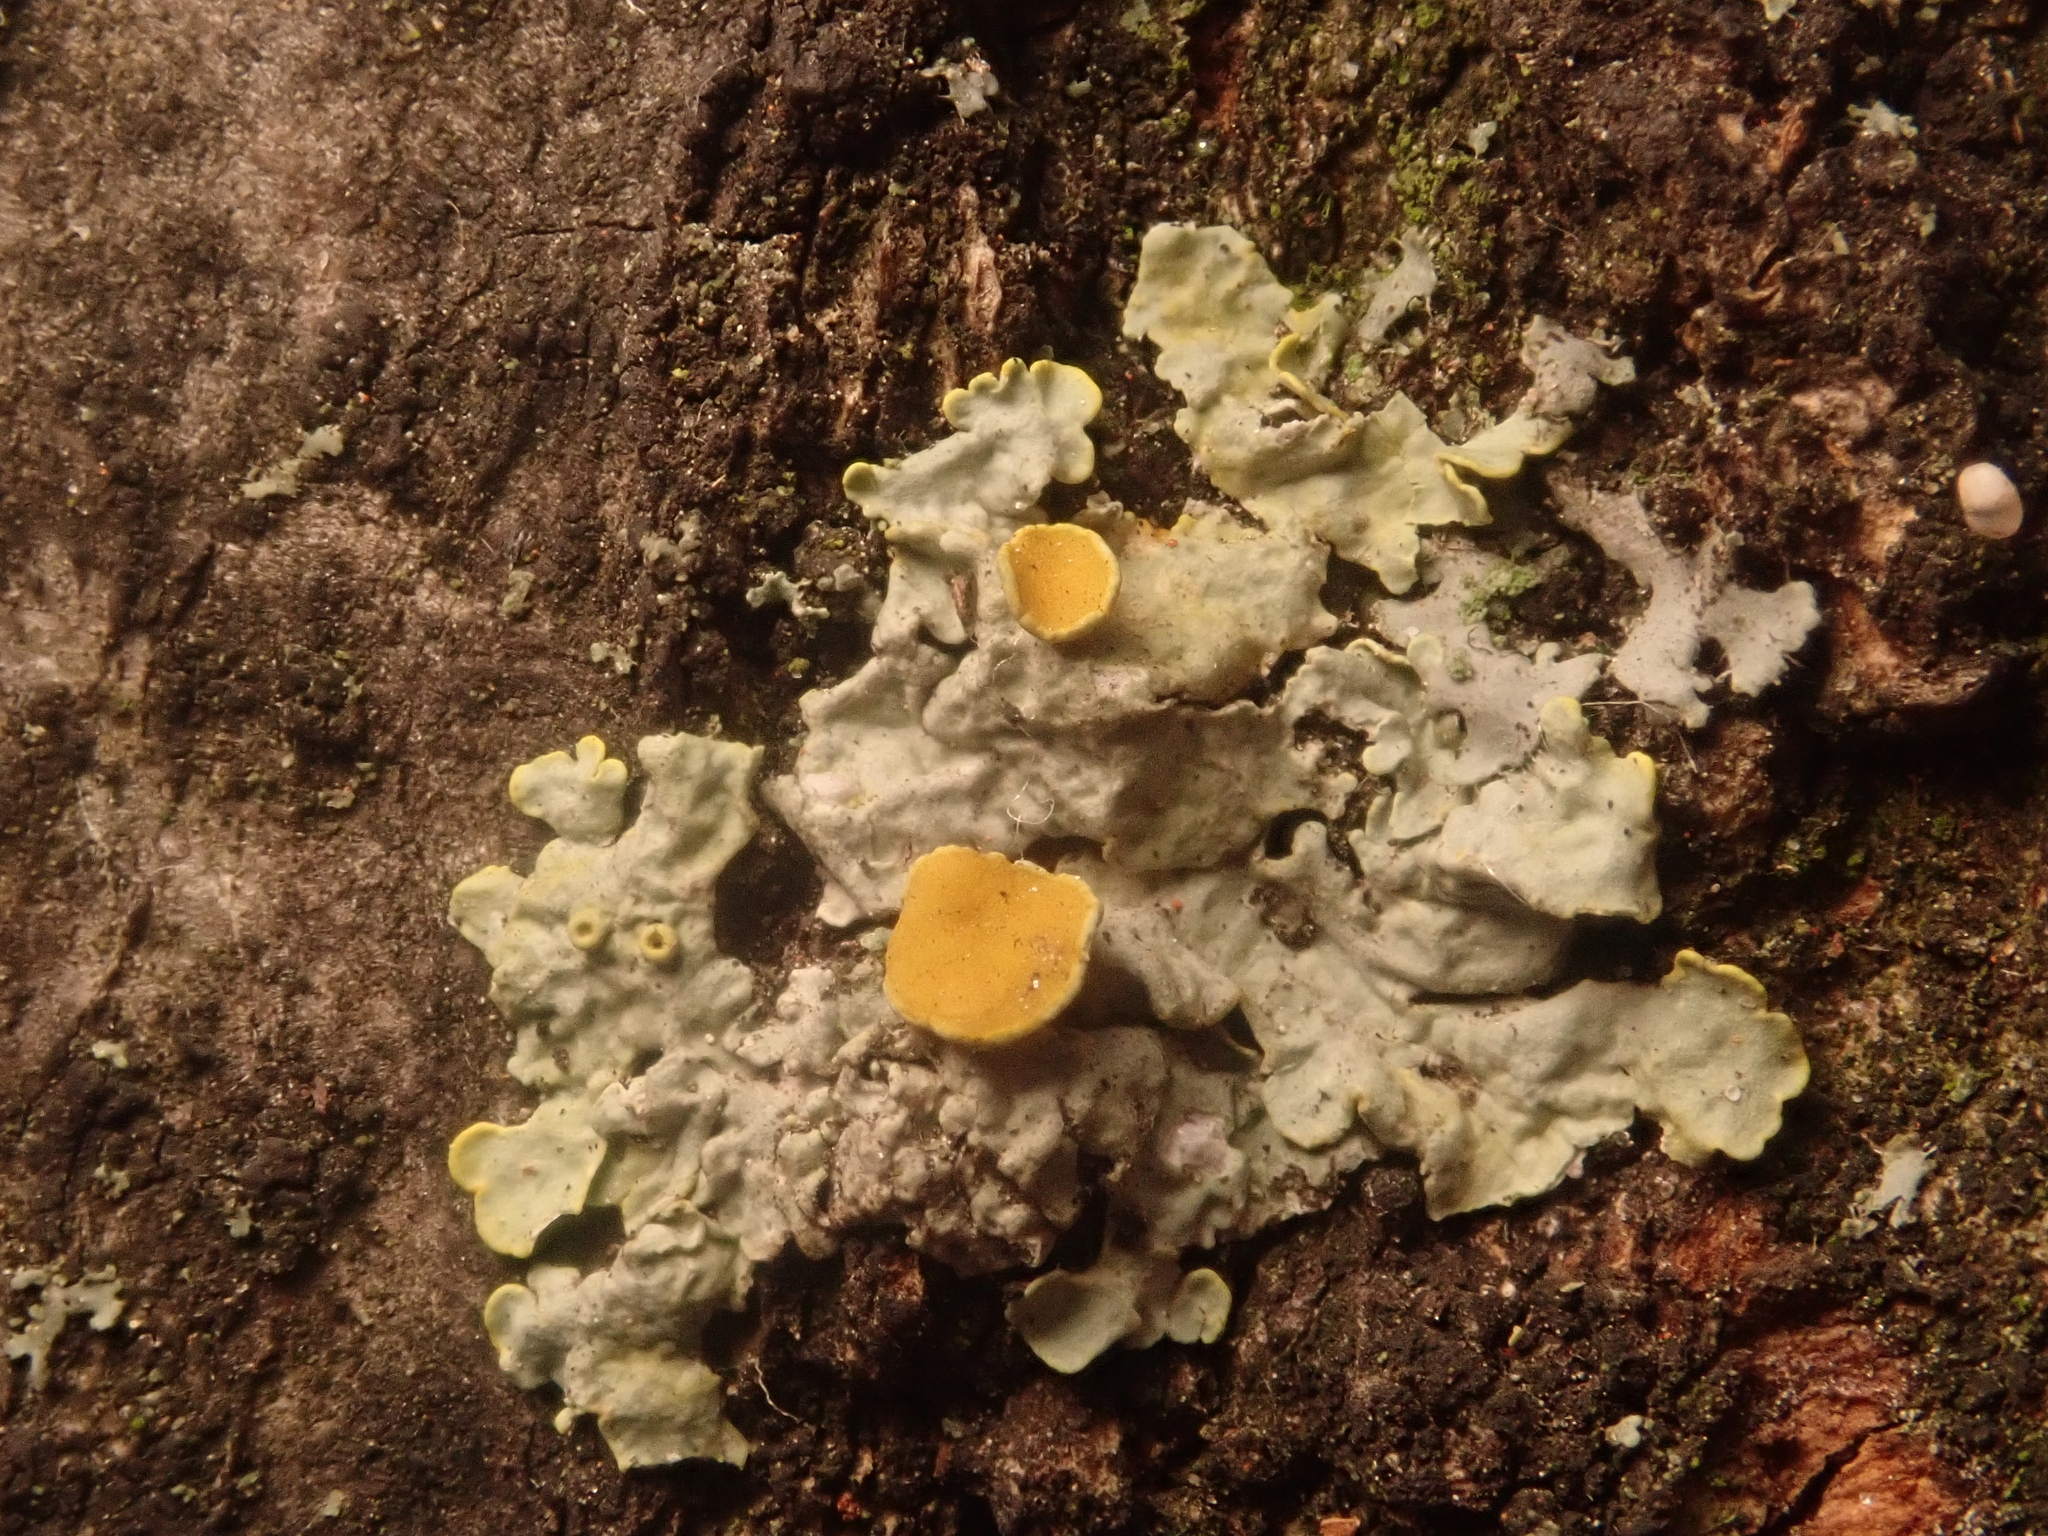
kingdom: Fungi
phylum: Ascomycota
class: Lecanoromycetes
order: Teloschistales
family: Teloschistaceae
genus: Xanthoria
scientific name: Xanthoria parietina
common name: Common orange lichen
